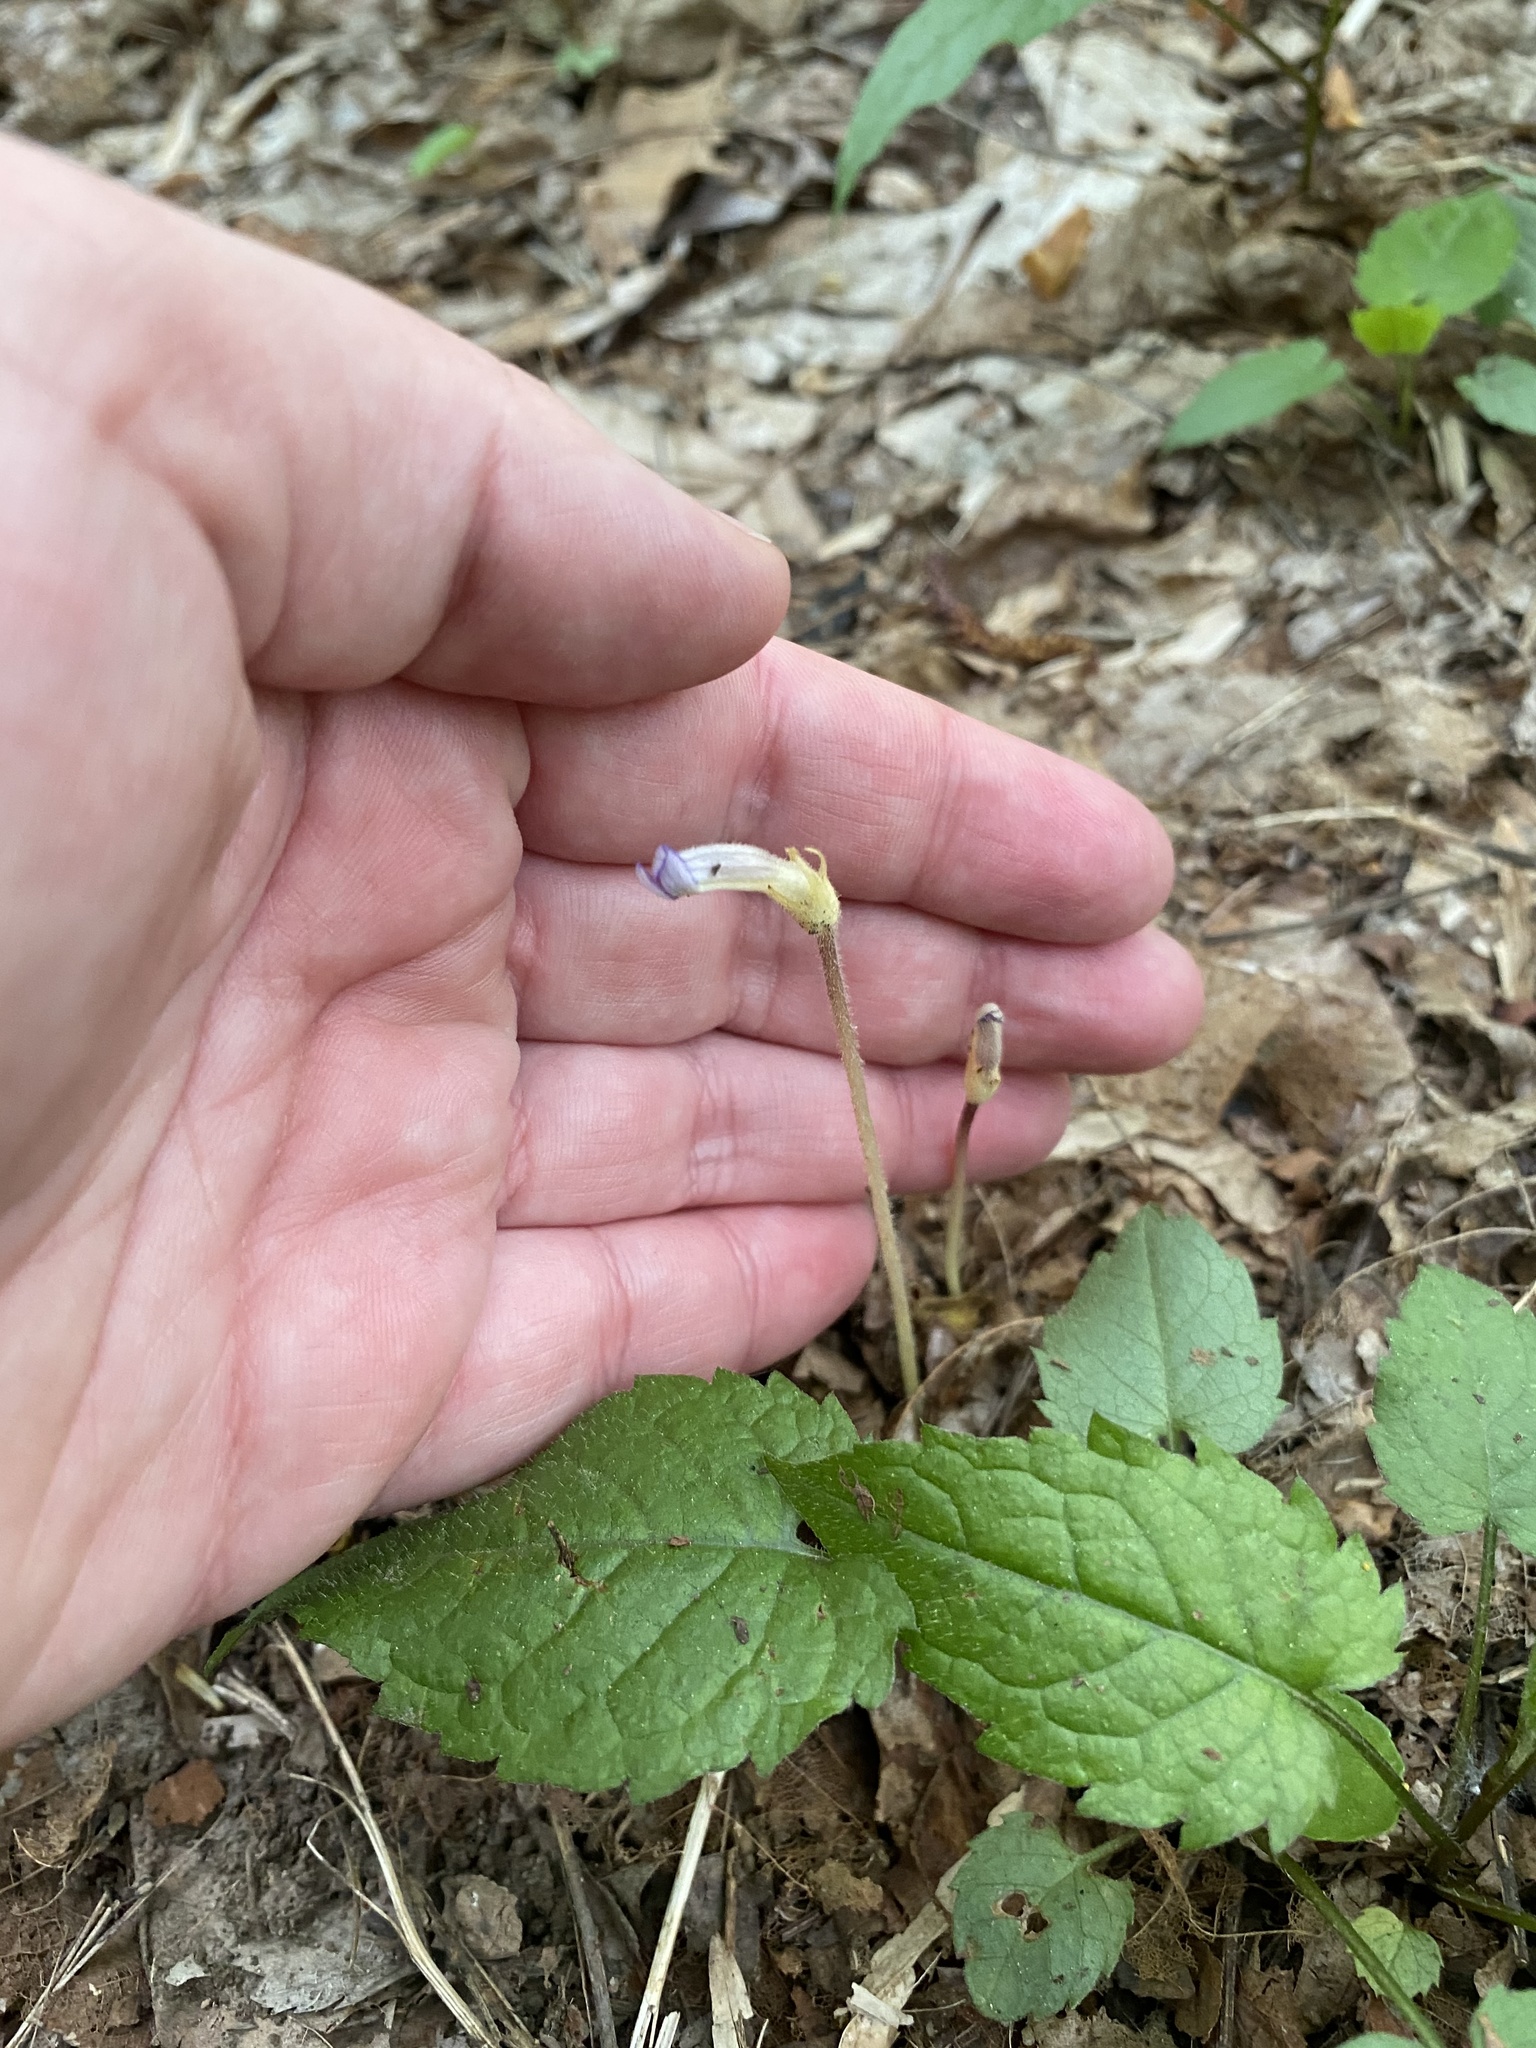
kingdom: Plantae
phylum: Tracheophyta
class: Magnoliopsida
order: Lamiales
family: Orobanchaceae
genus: Aphyllon
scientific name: Aphyllon uniflorum
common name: One-flowered broomrape
